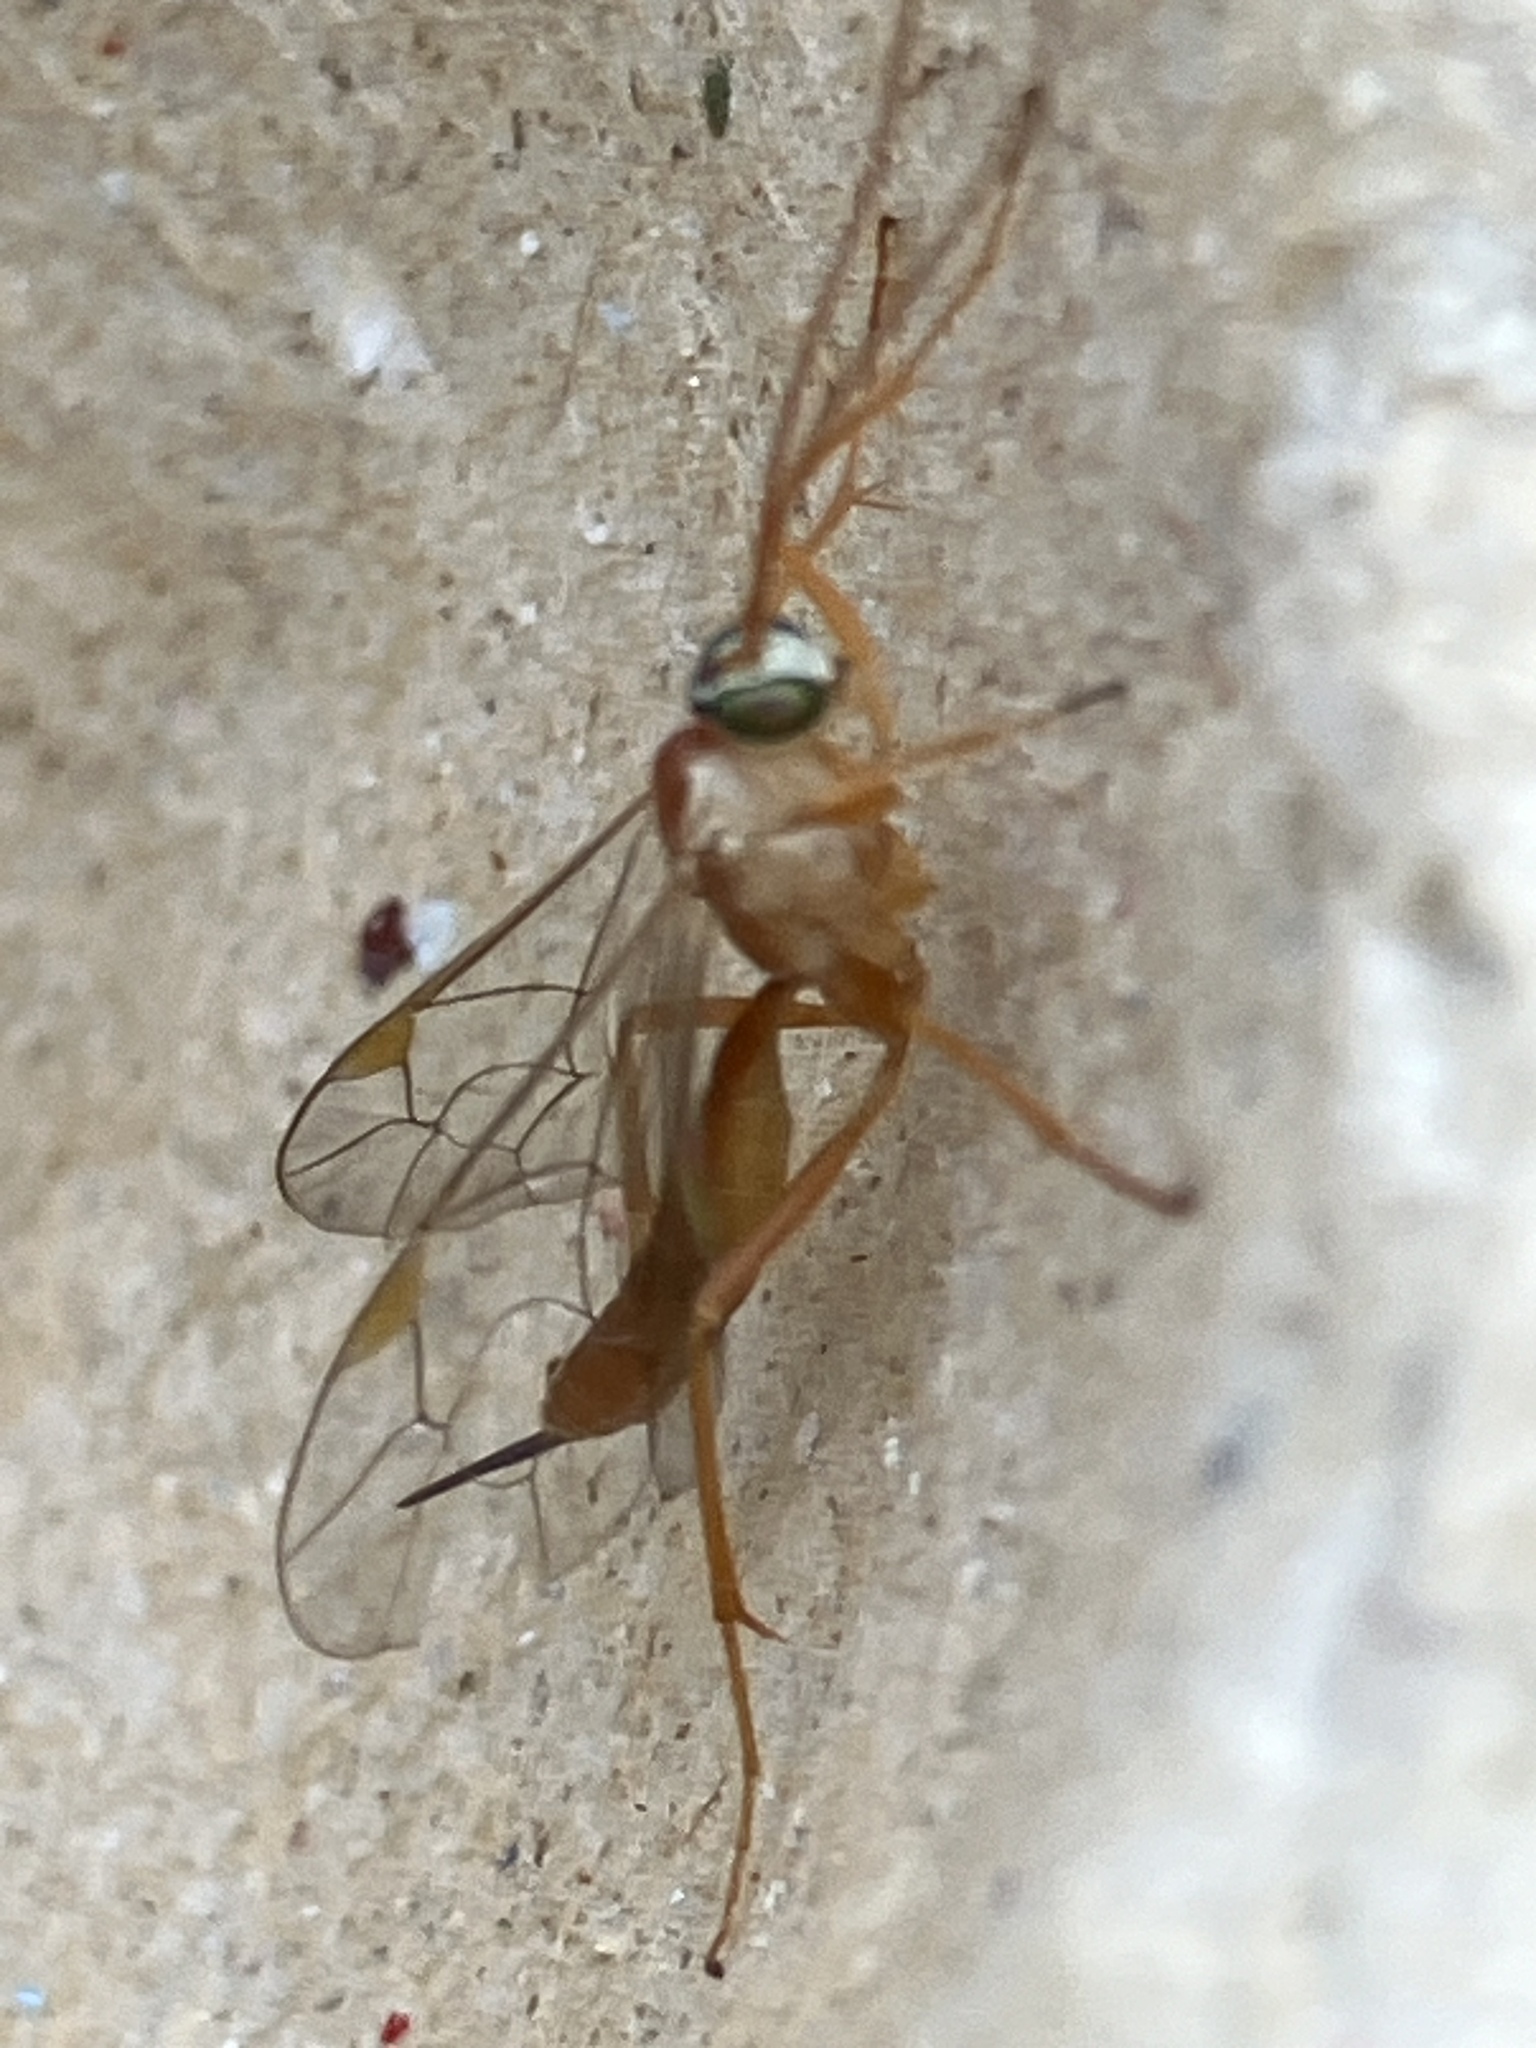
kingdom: Animalia
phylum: Arthropoda
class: Insecta
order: Hymenoptera
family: Ichneumonidae
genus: Netelia
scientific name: Netelia millieratae
